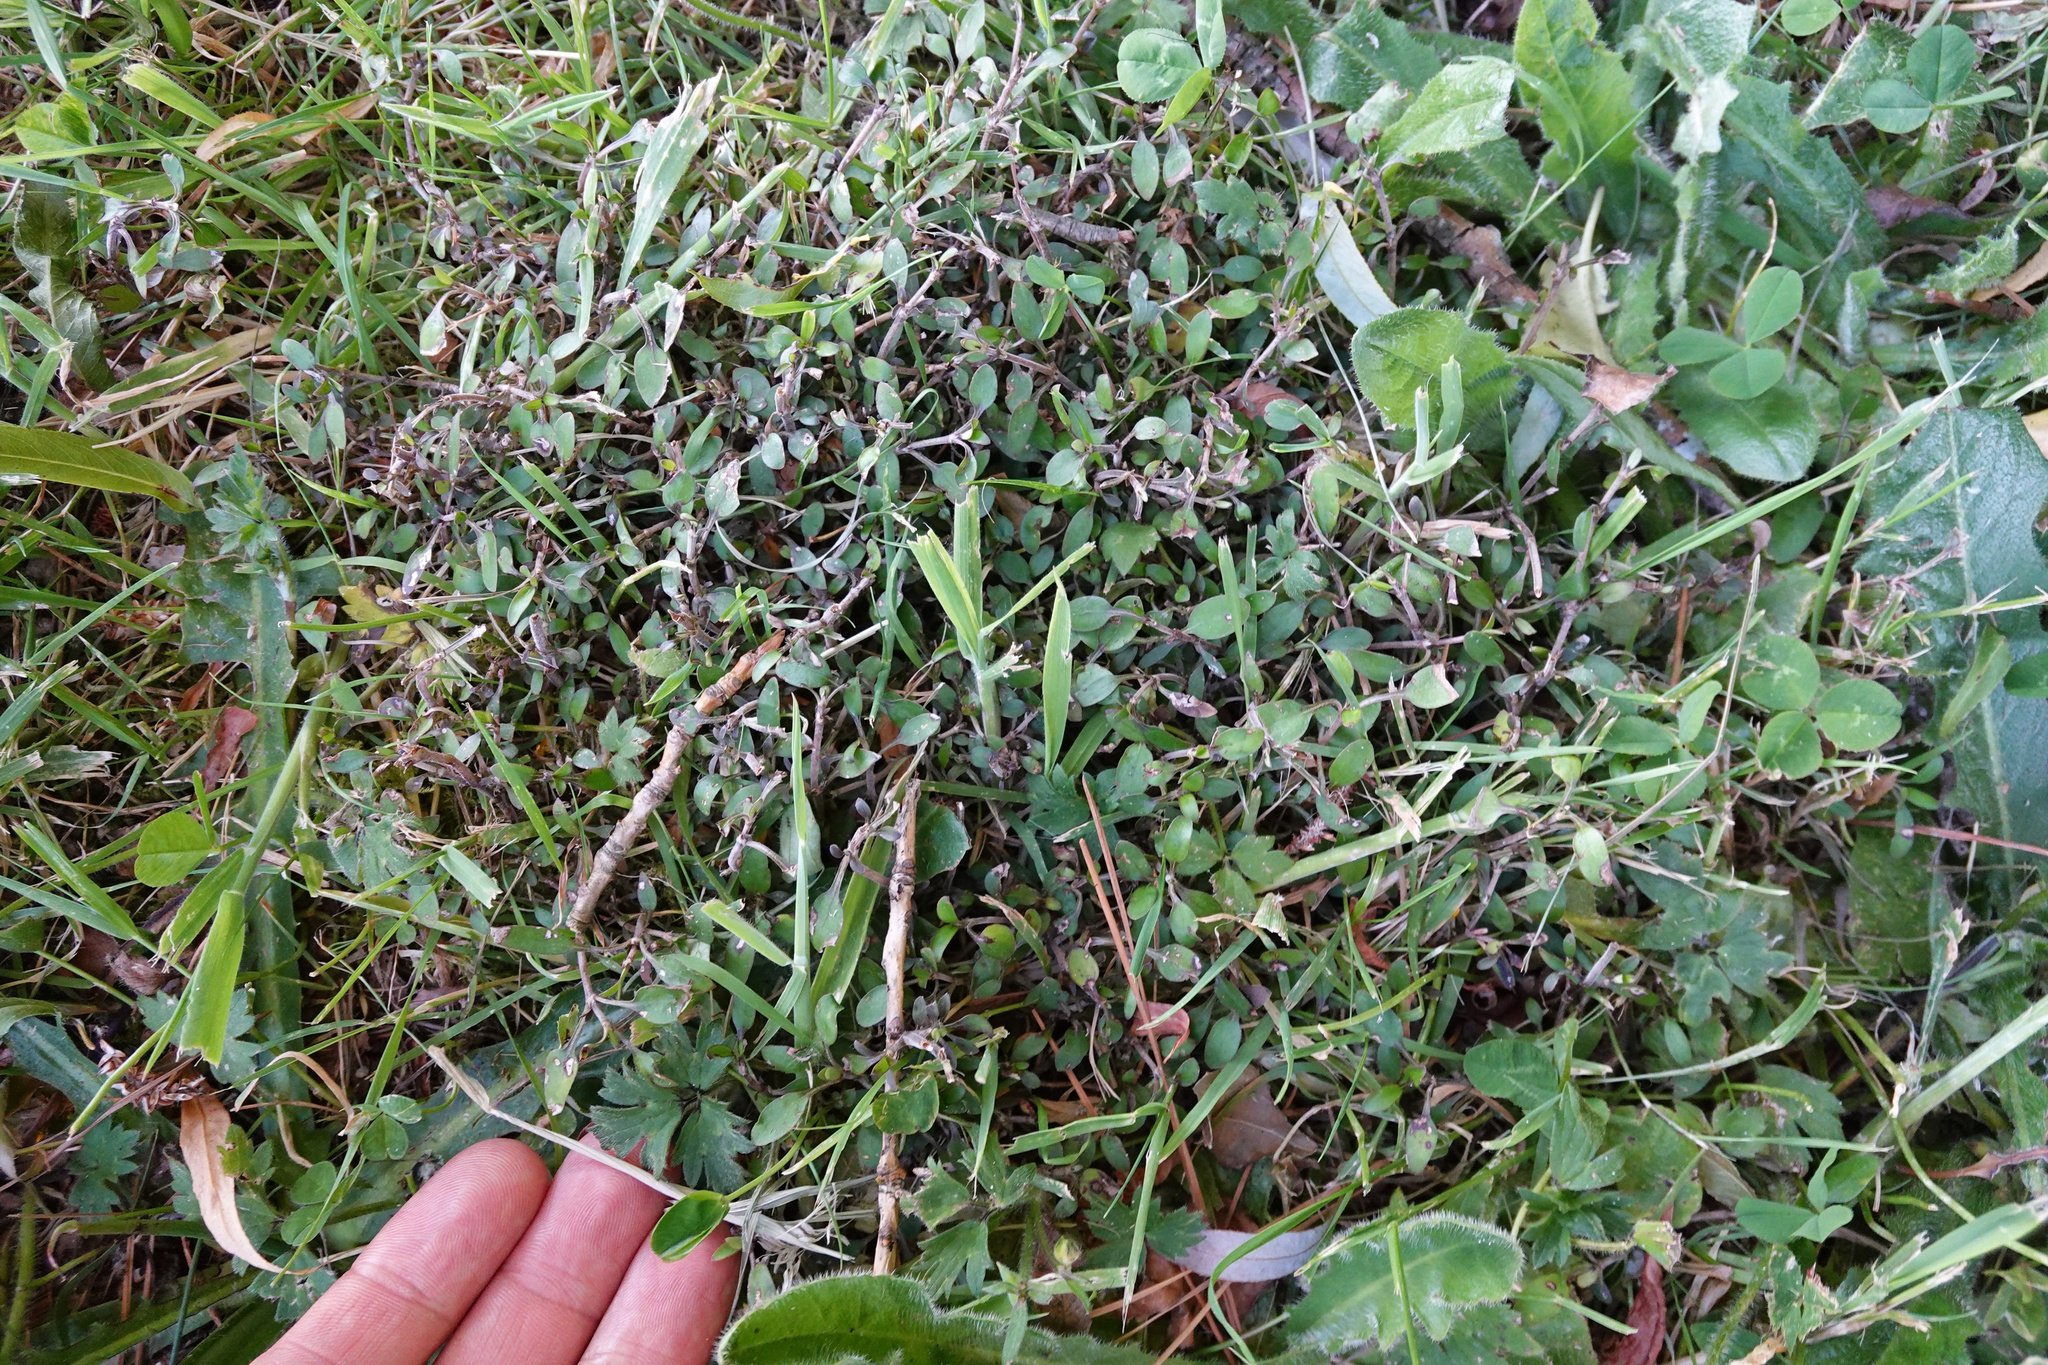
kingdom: Plantae
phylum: Tracheophyta
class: Magnoliopsida
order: Gentianales
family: Rubiaceae
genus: Coprosma
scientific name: Coprosma propinqua
